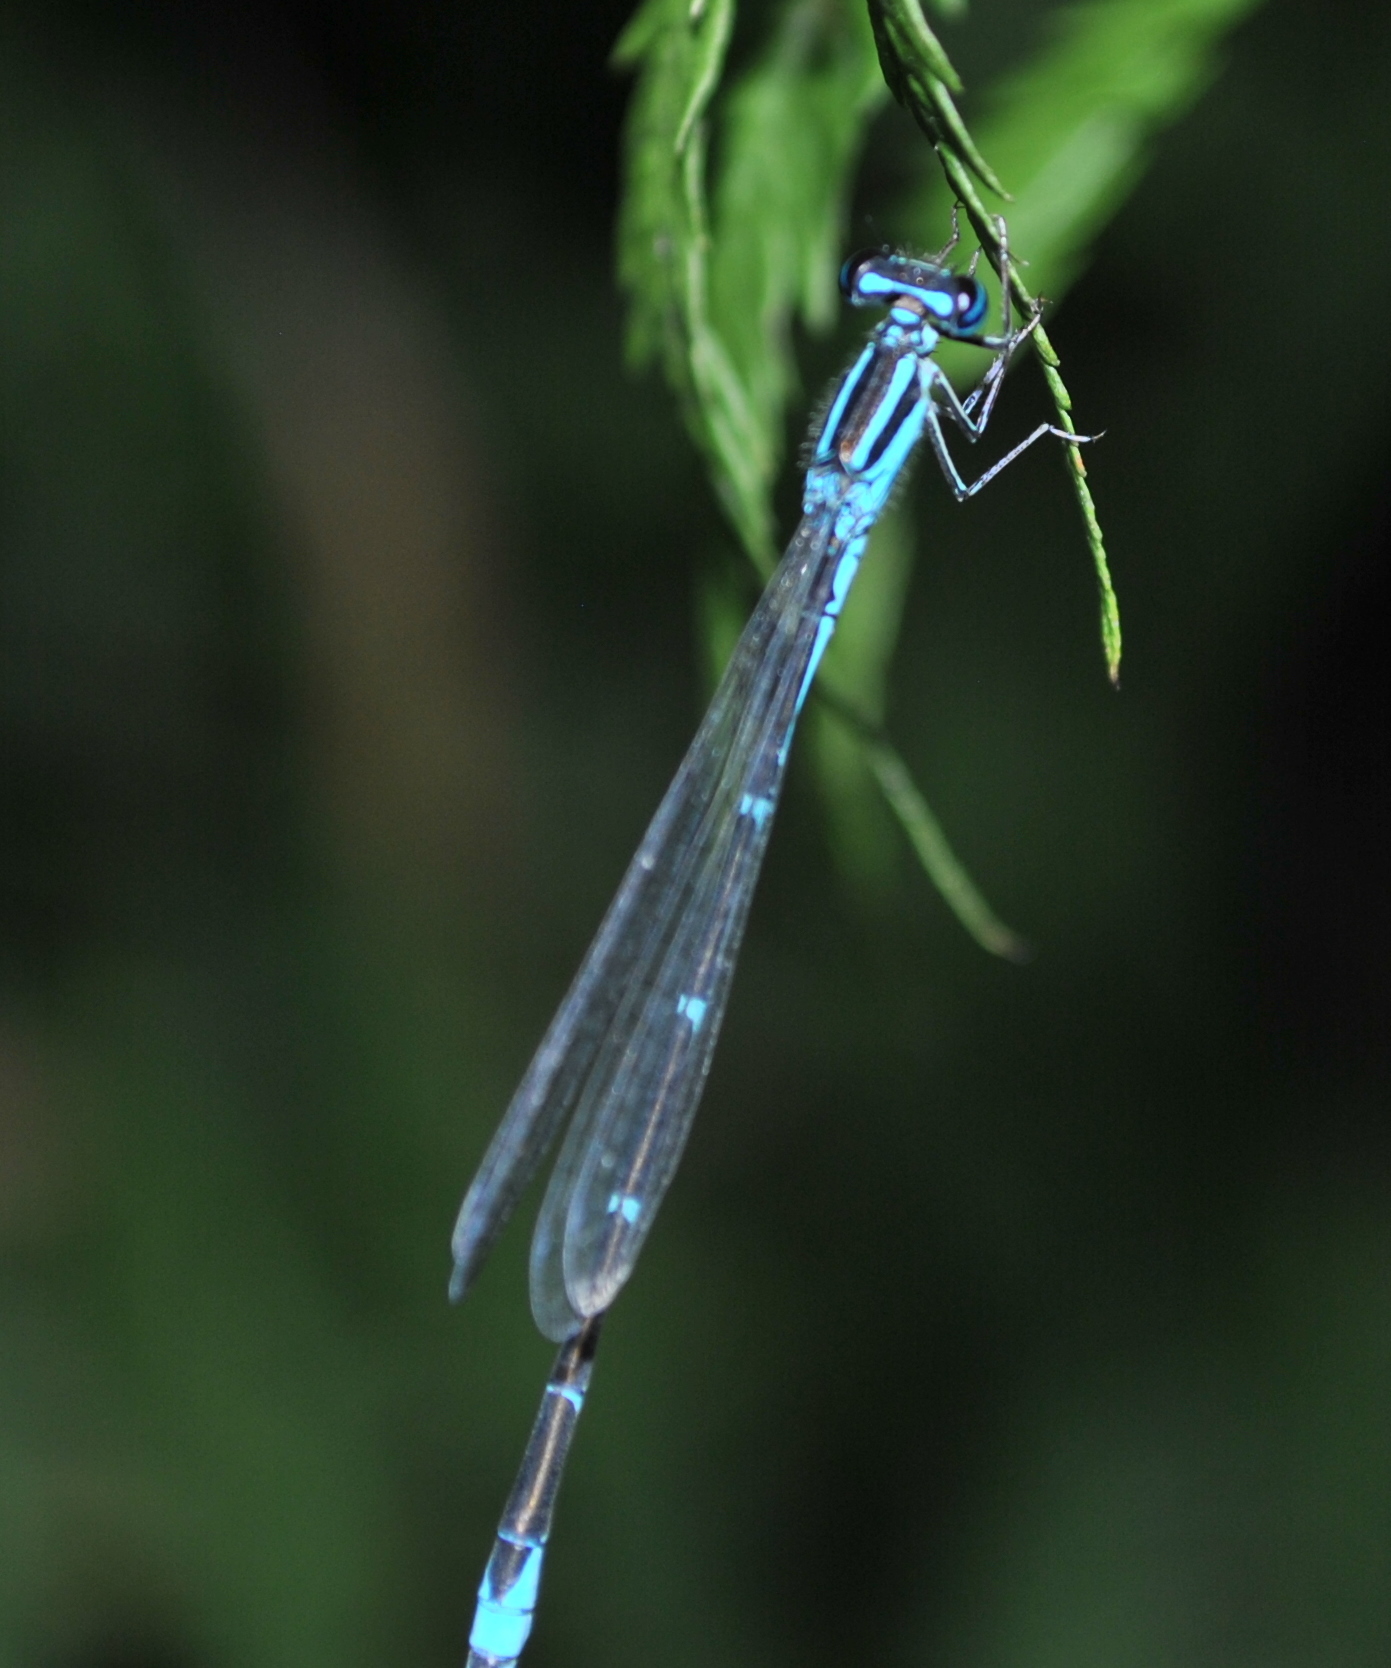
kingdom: Animalia
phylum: Arthropoda
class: Insecta
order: Odonata
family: Coenagrionidae
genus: Enallagma
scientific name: Enallagma exsulans
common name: Stream bluet
